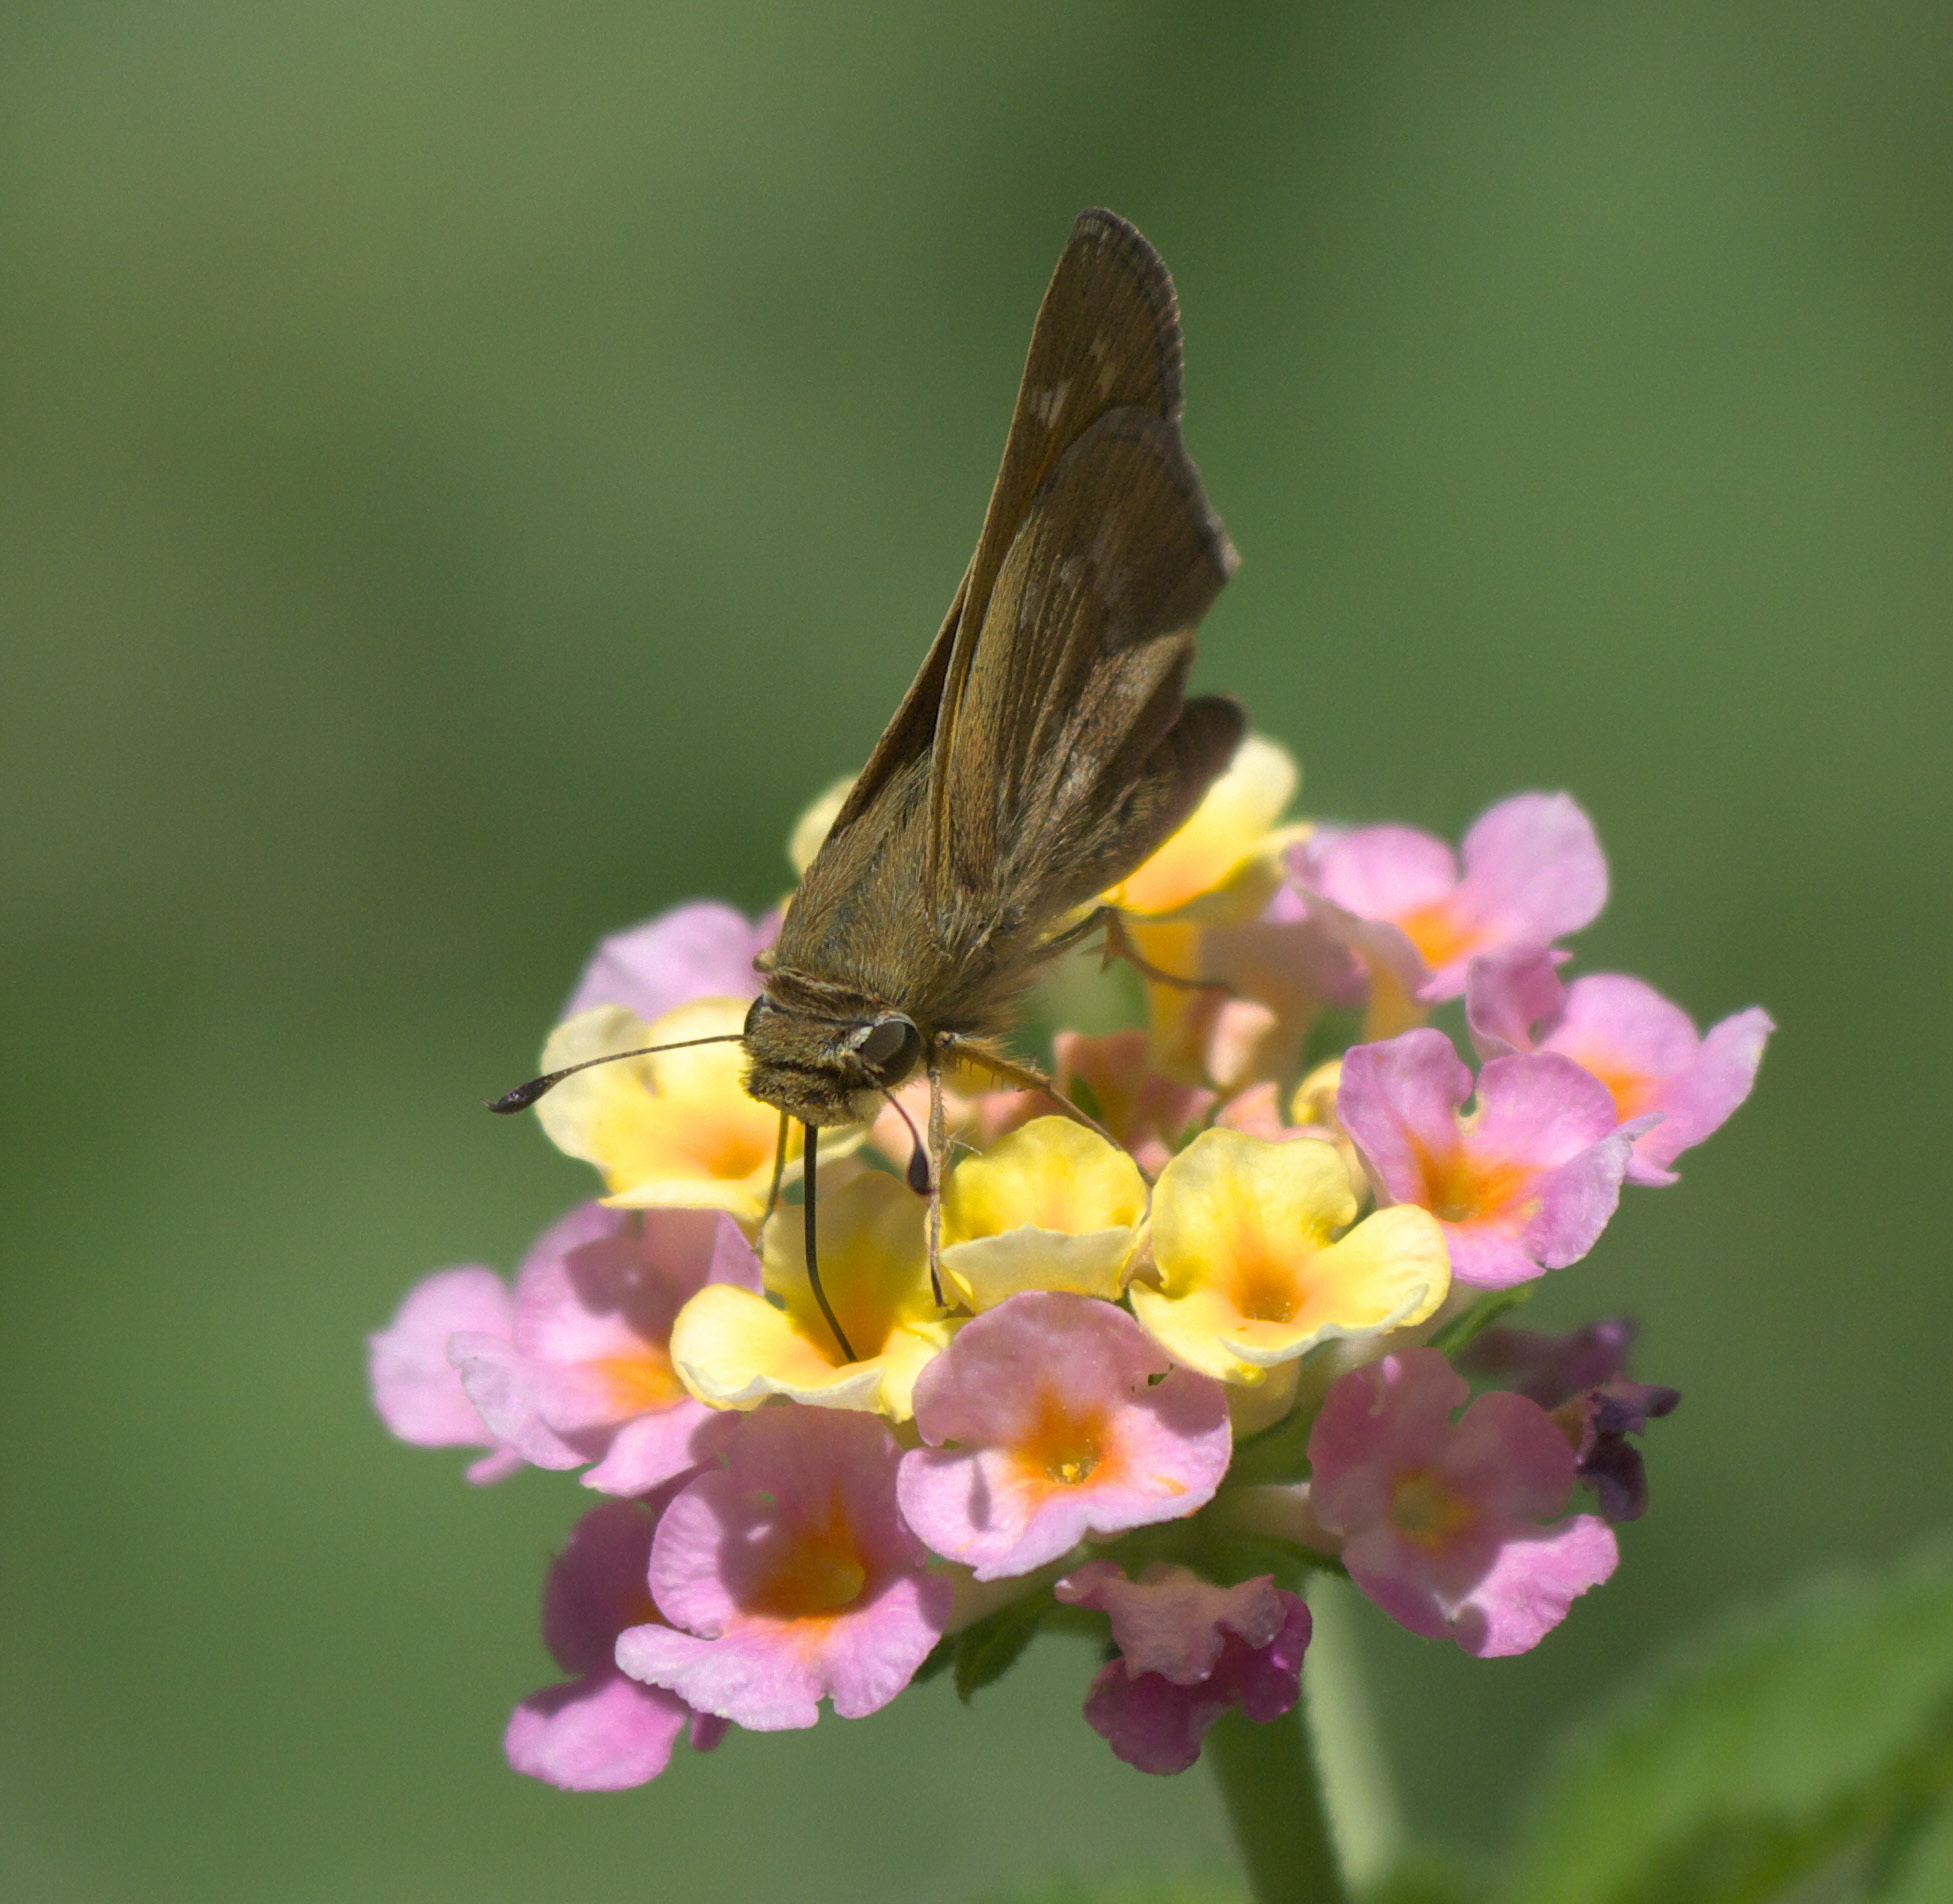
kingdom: Animalia
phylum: Arthropoda
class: Insecta
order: Lepidoptera
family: Hesperiidae
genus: Lerema
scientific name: Lerema accius
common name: Clouded skipper
